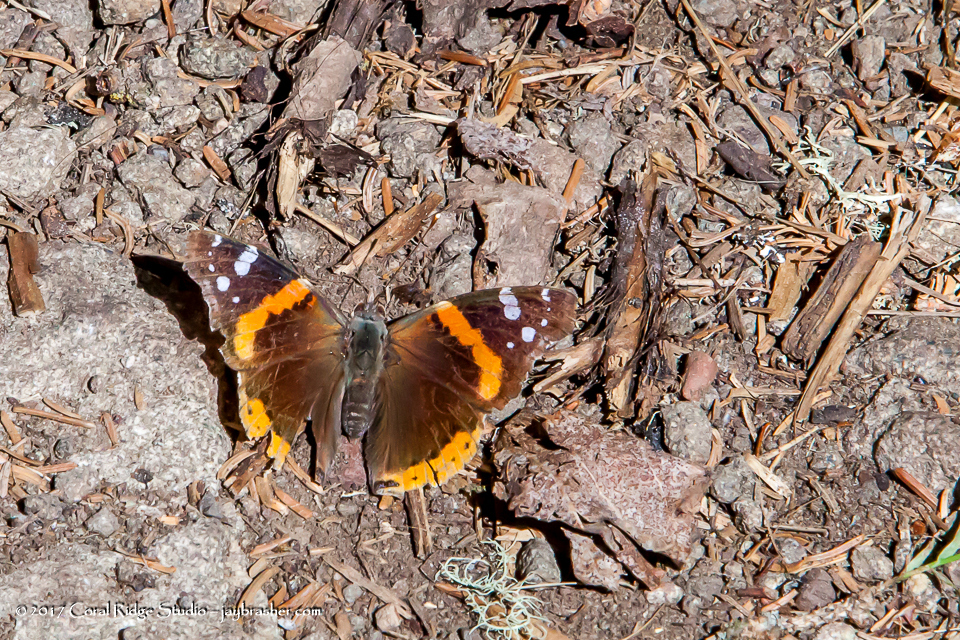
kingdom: Animalia
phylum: Arthropoda
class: Insecta
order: Lepidoptera
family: Nymphalidae
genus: Vanessa
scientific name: Vanessa atalanta
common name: Red admiral
